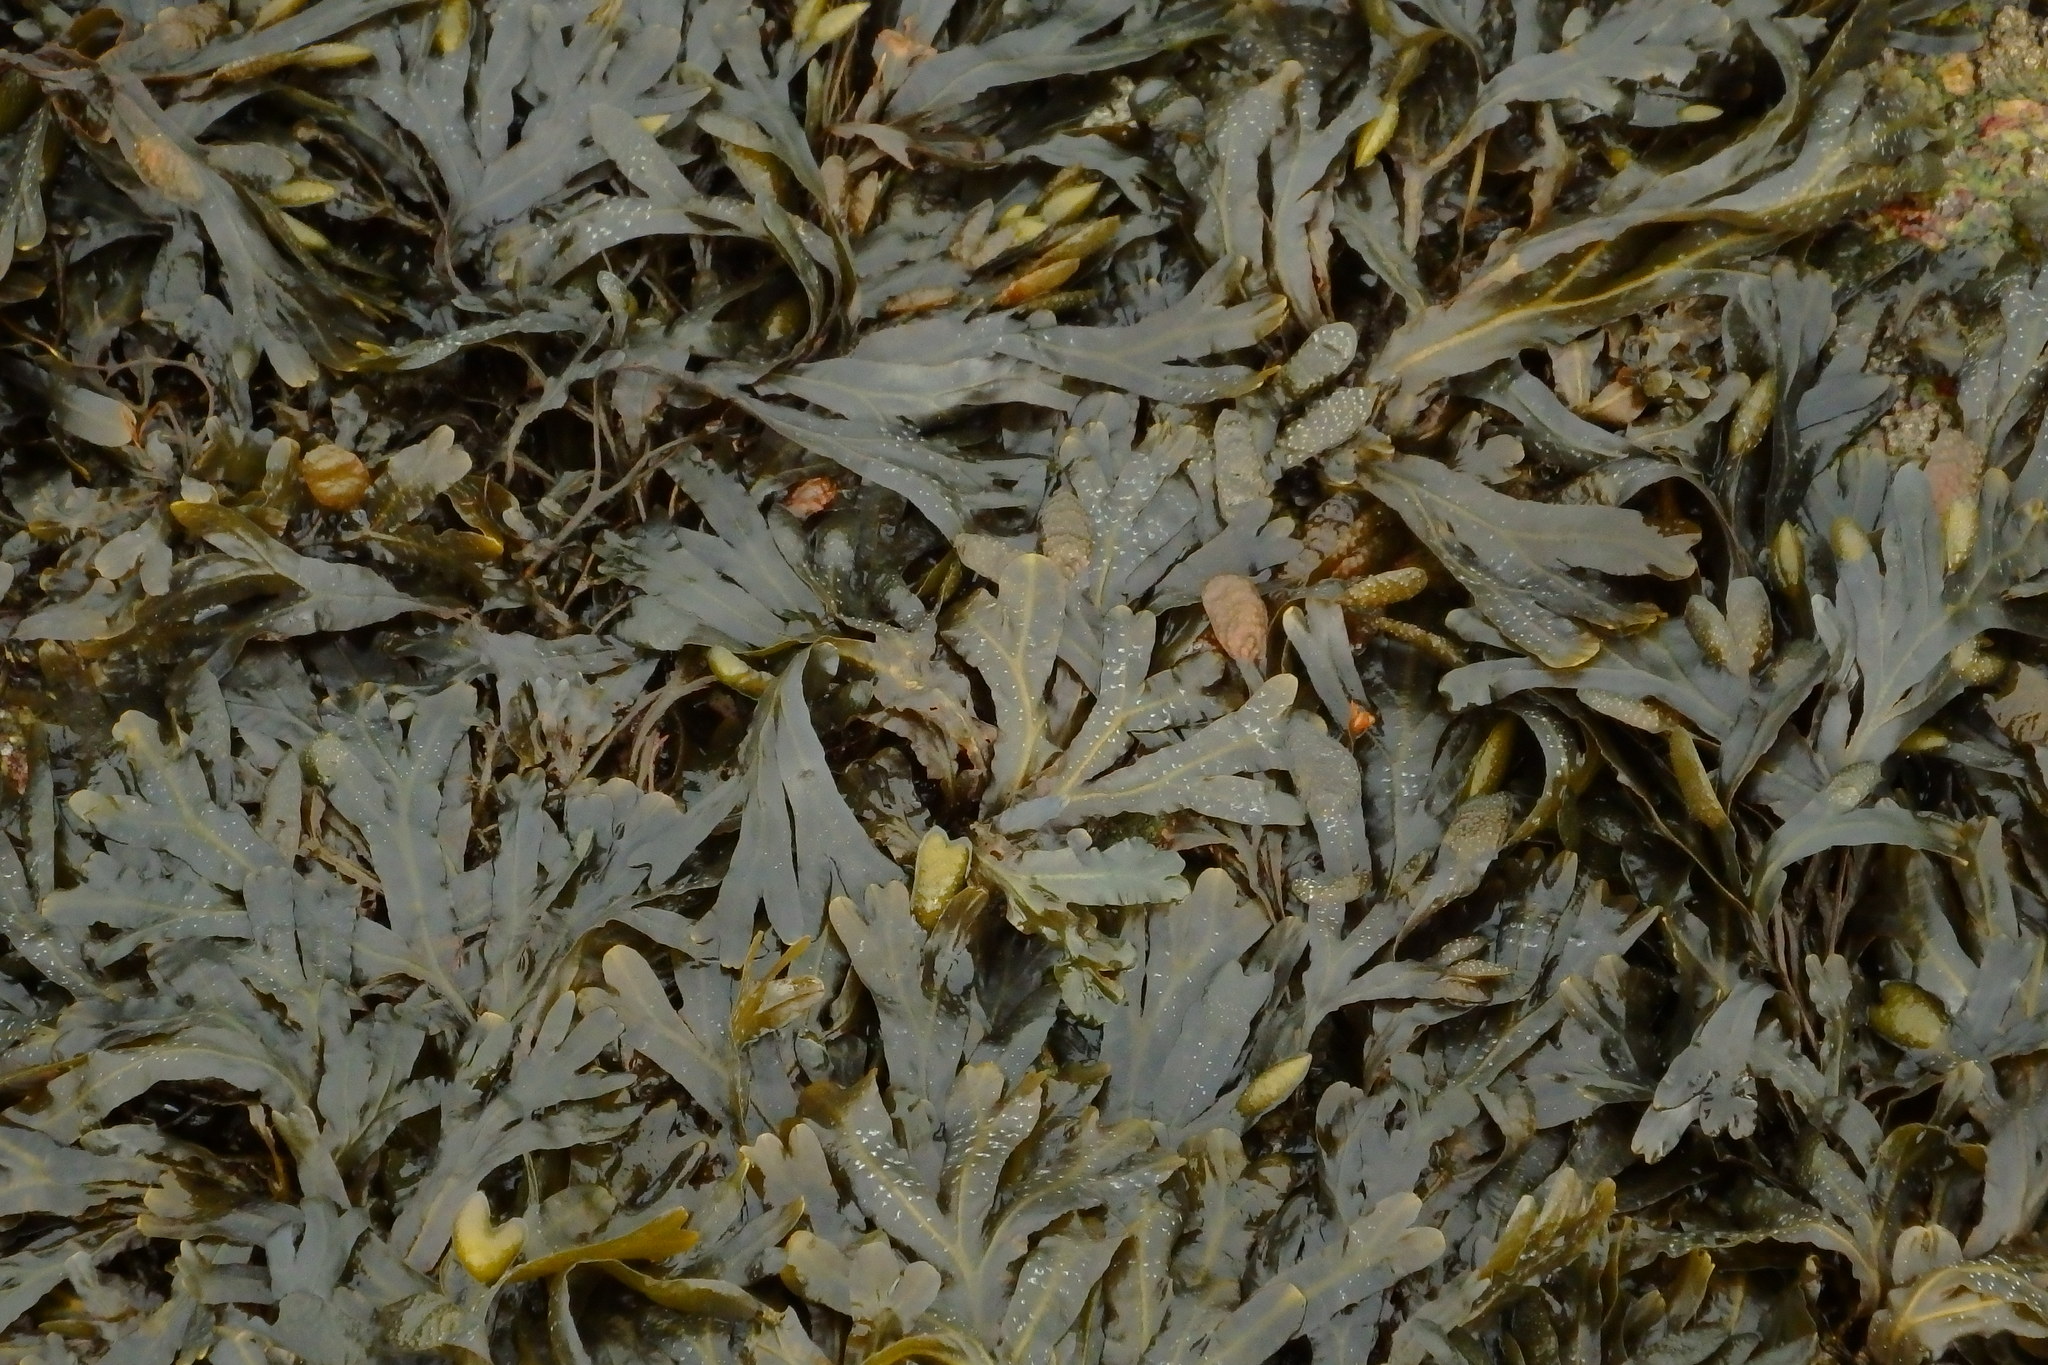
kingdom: Chromista
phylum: Ochrophyta
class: Phaeophyceae
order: Fucales
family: Fucaceae
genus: Fucus
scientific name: Fucus
